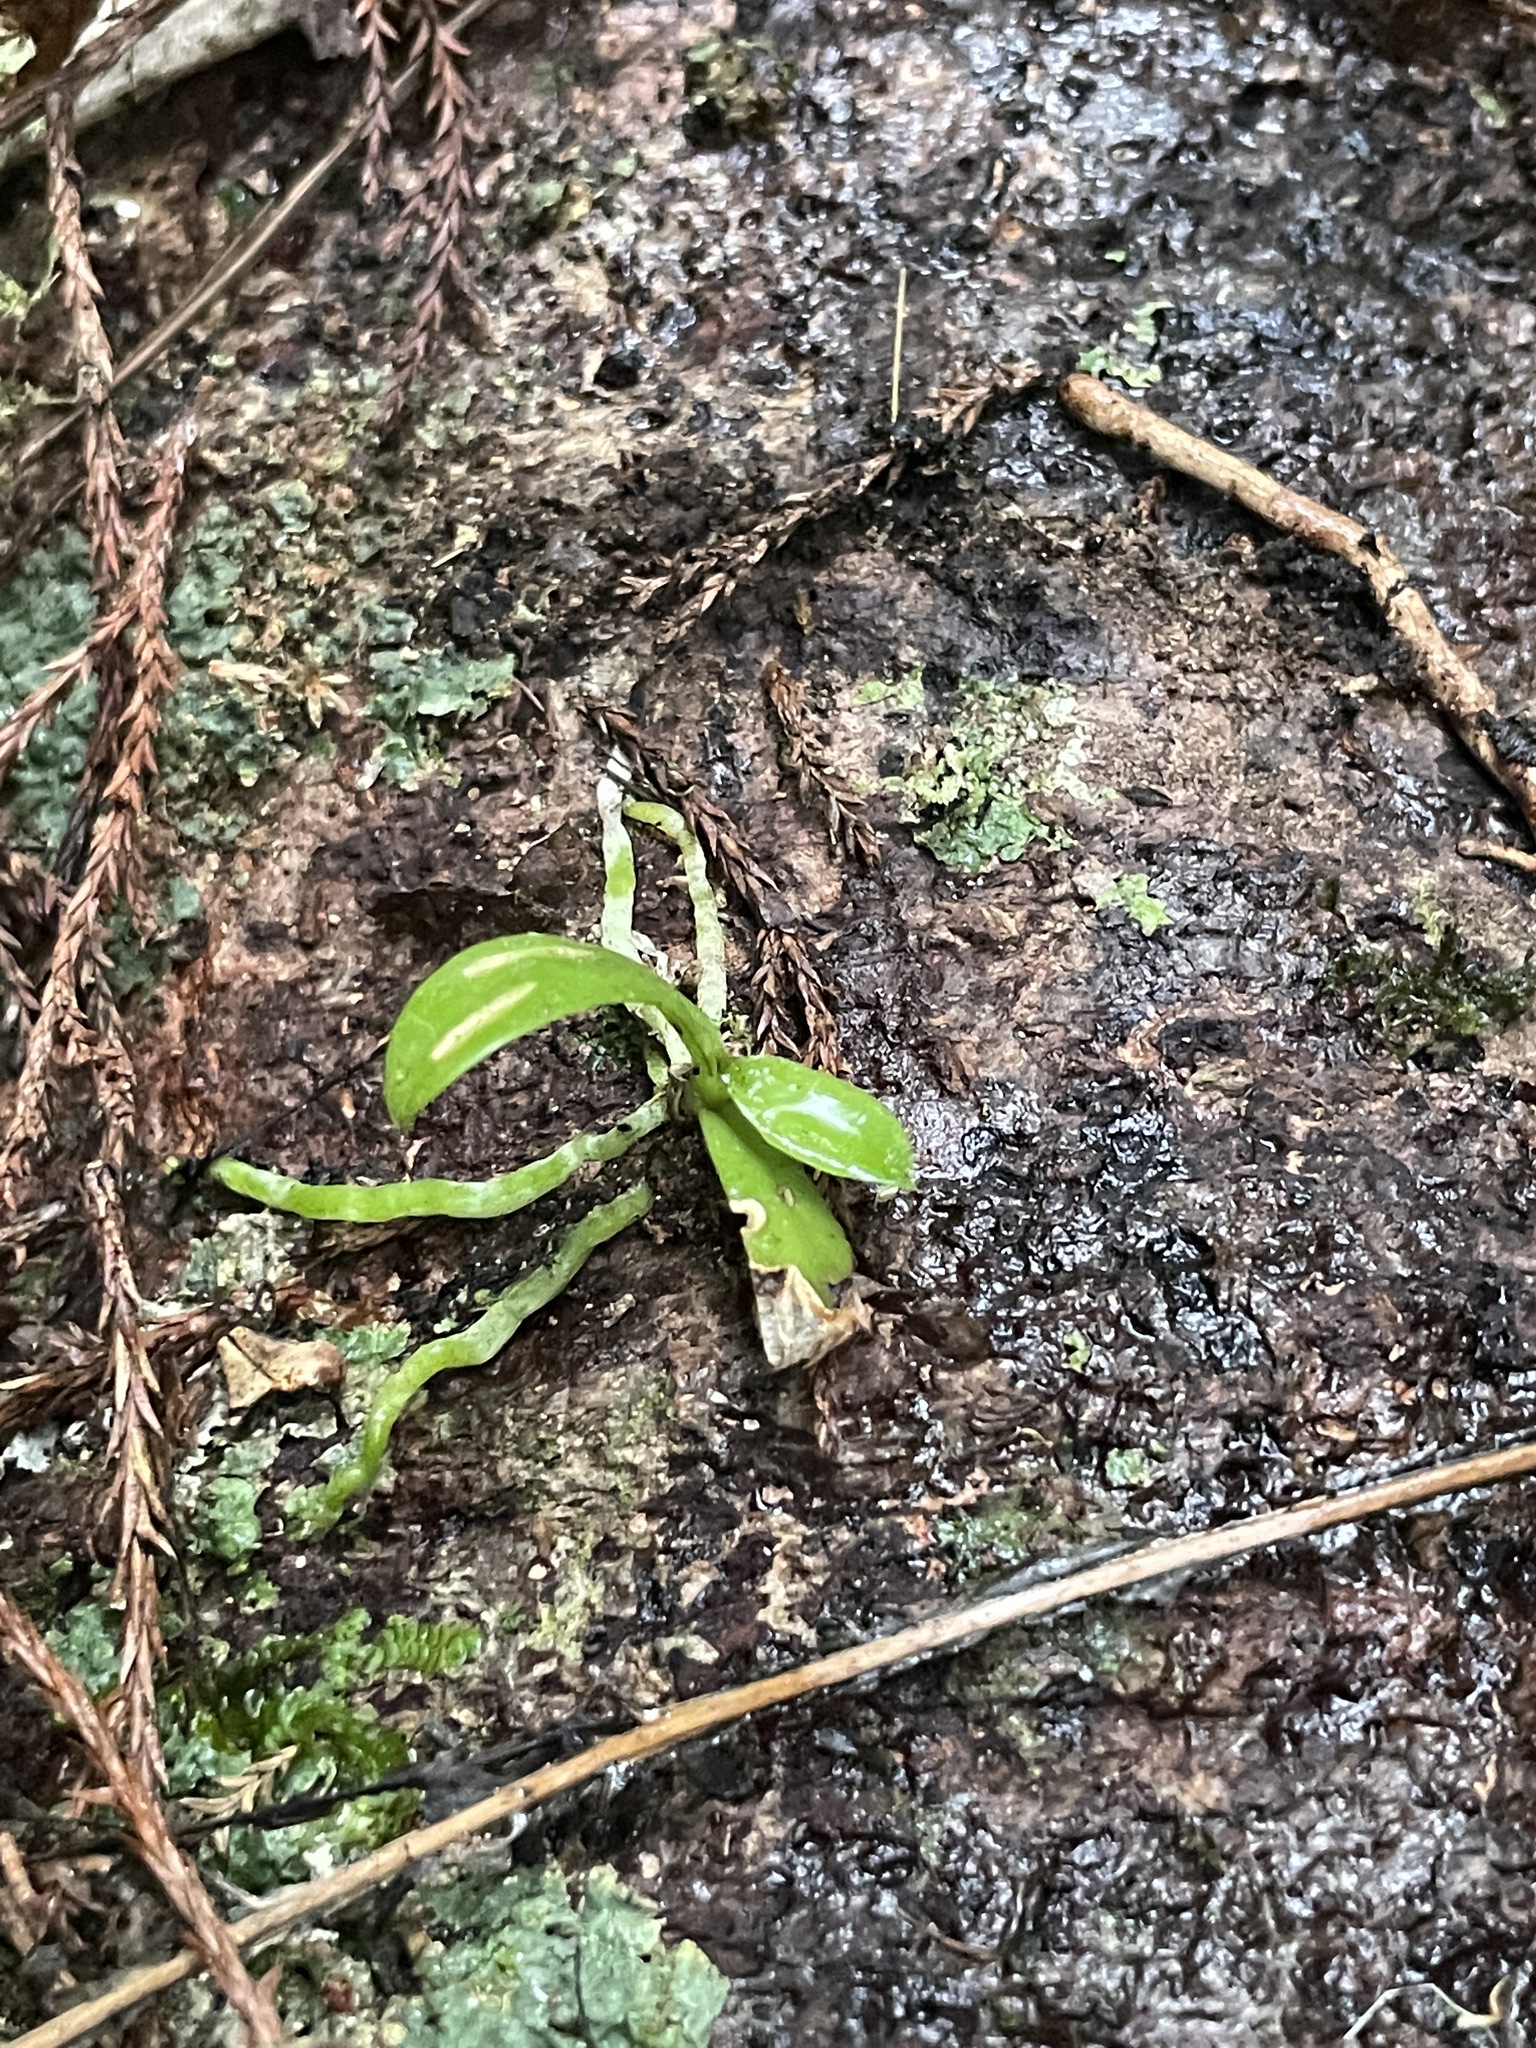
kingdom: Plantae
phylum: Tracheophyta
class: Liliopsida
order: Asparagales
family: Orchidaceae
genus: Drymoanthus
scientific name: Drymoanthus adversus
